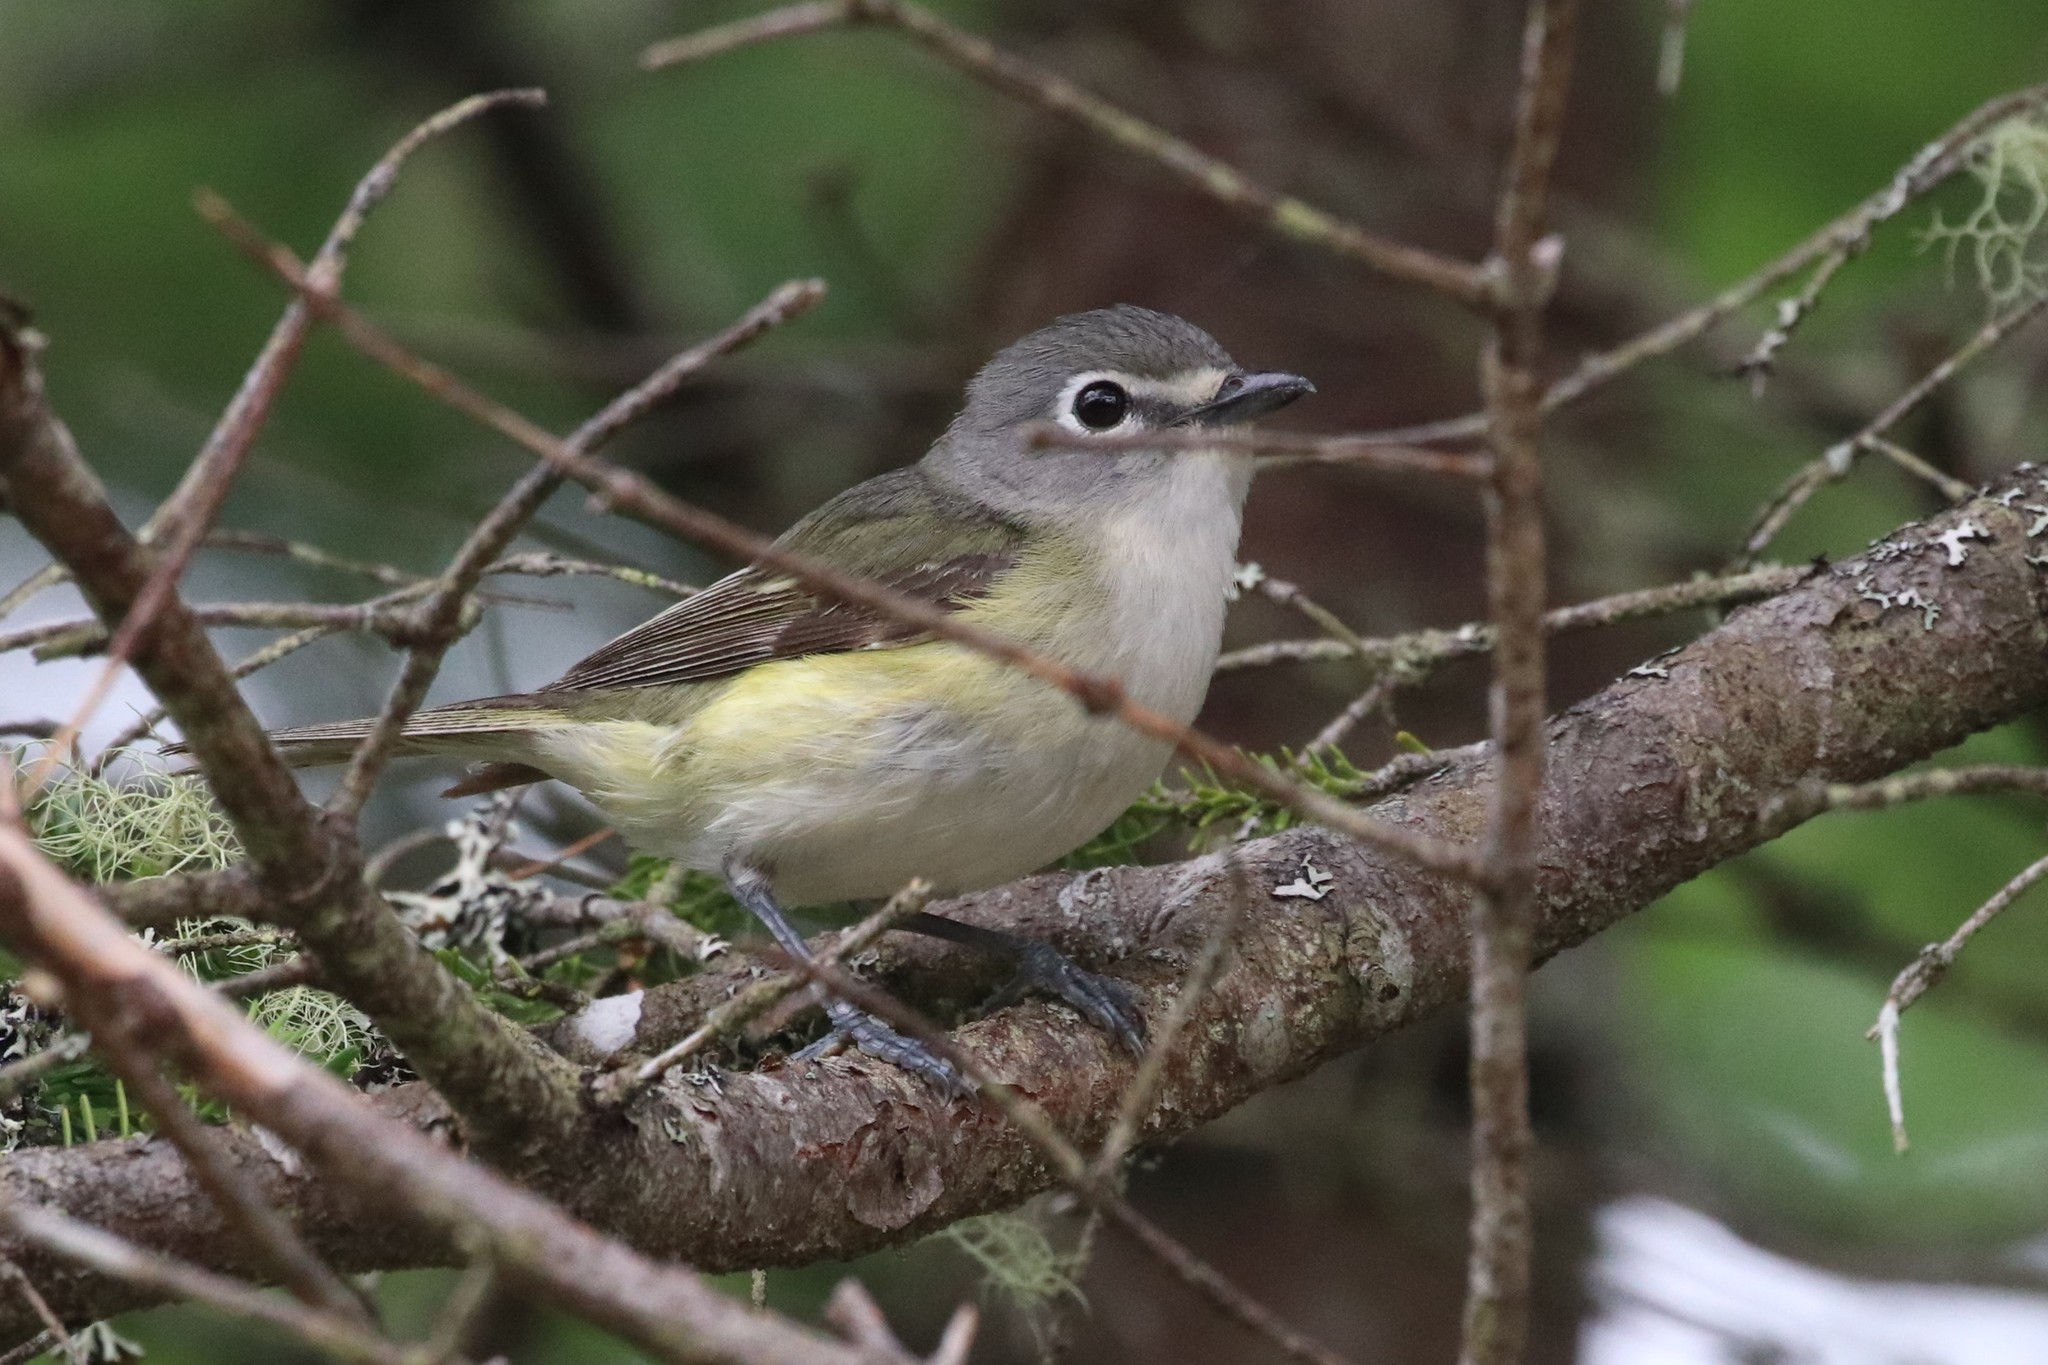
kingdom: Animalia
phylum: Chordata
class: Aves
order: Passeriformes
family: Vireonidae
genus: Vireo
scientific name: Vireo solitarius
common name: Blue-headed vireo
